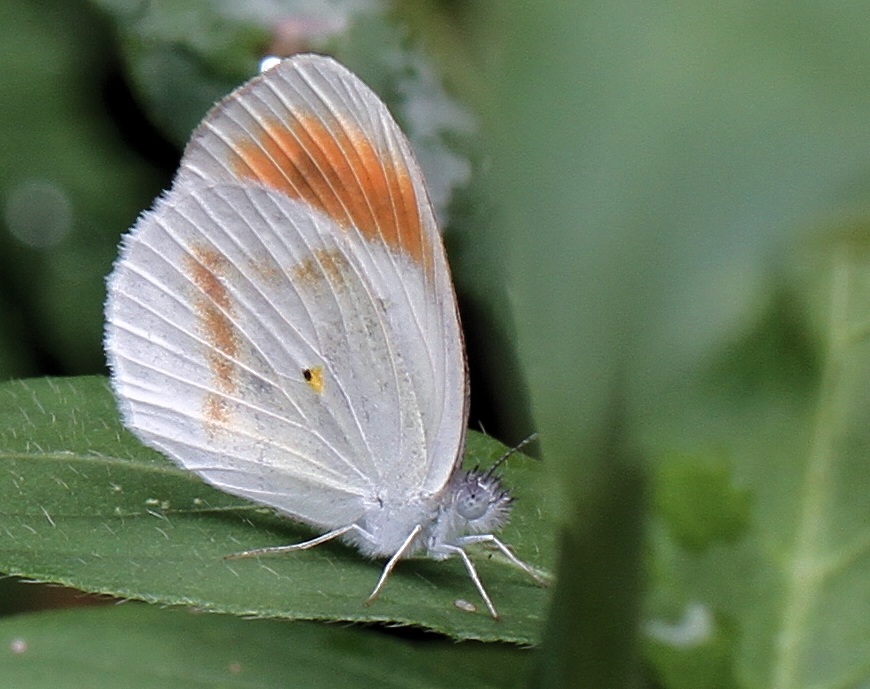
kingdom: Animalia
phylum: Arthropoda
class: Insecta
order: Lepidoptera
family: Pieridae
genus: Colotis
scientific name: Colotis euippe
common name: Round-winged orange tip
